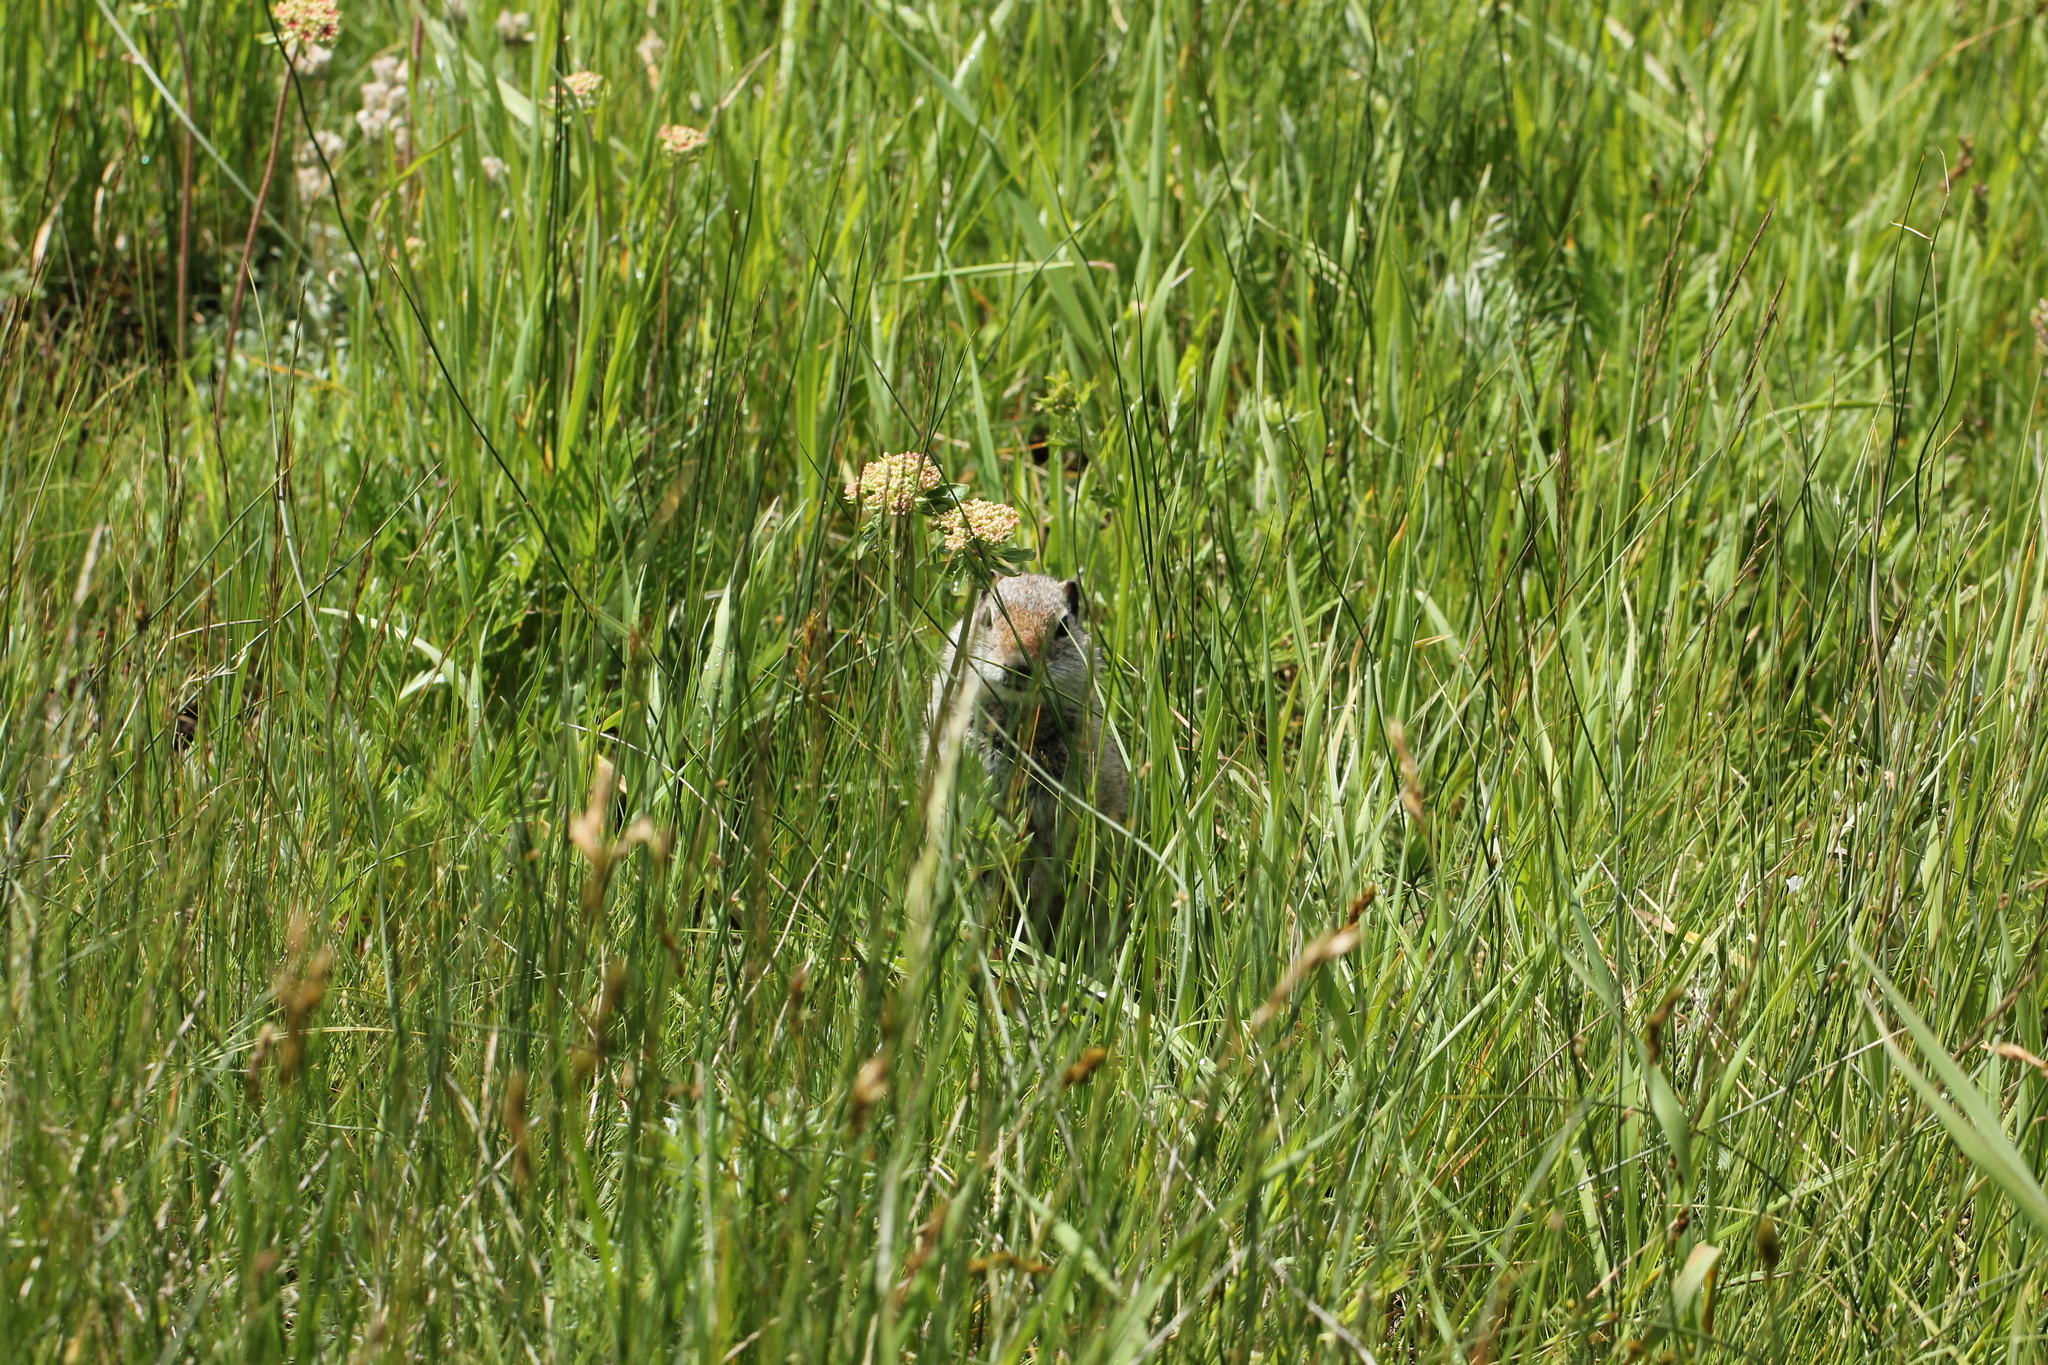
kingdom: Animalia
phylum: Chordata
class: Mammalia
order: Rodentia
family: Sciuridae
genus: Urocitellus
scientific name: Urocitellus armatus
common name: Uinta ground squirrel
